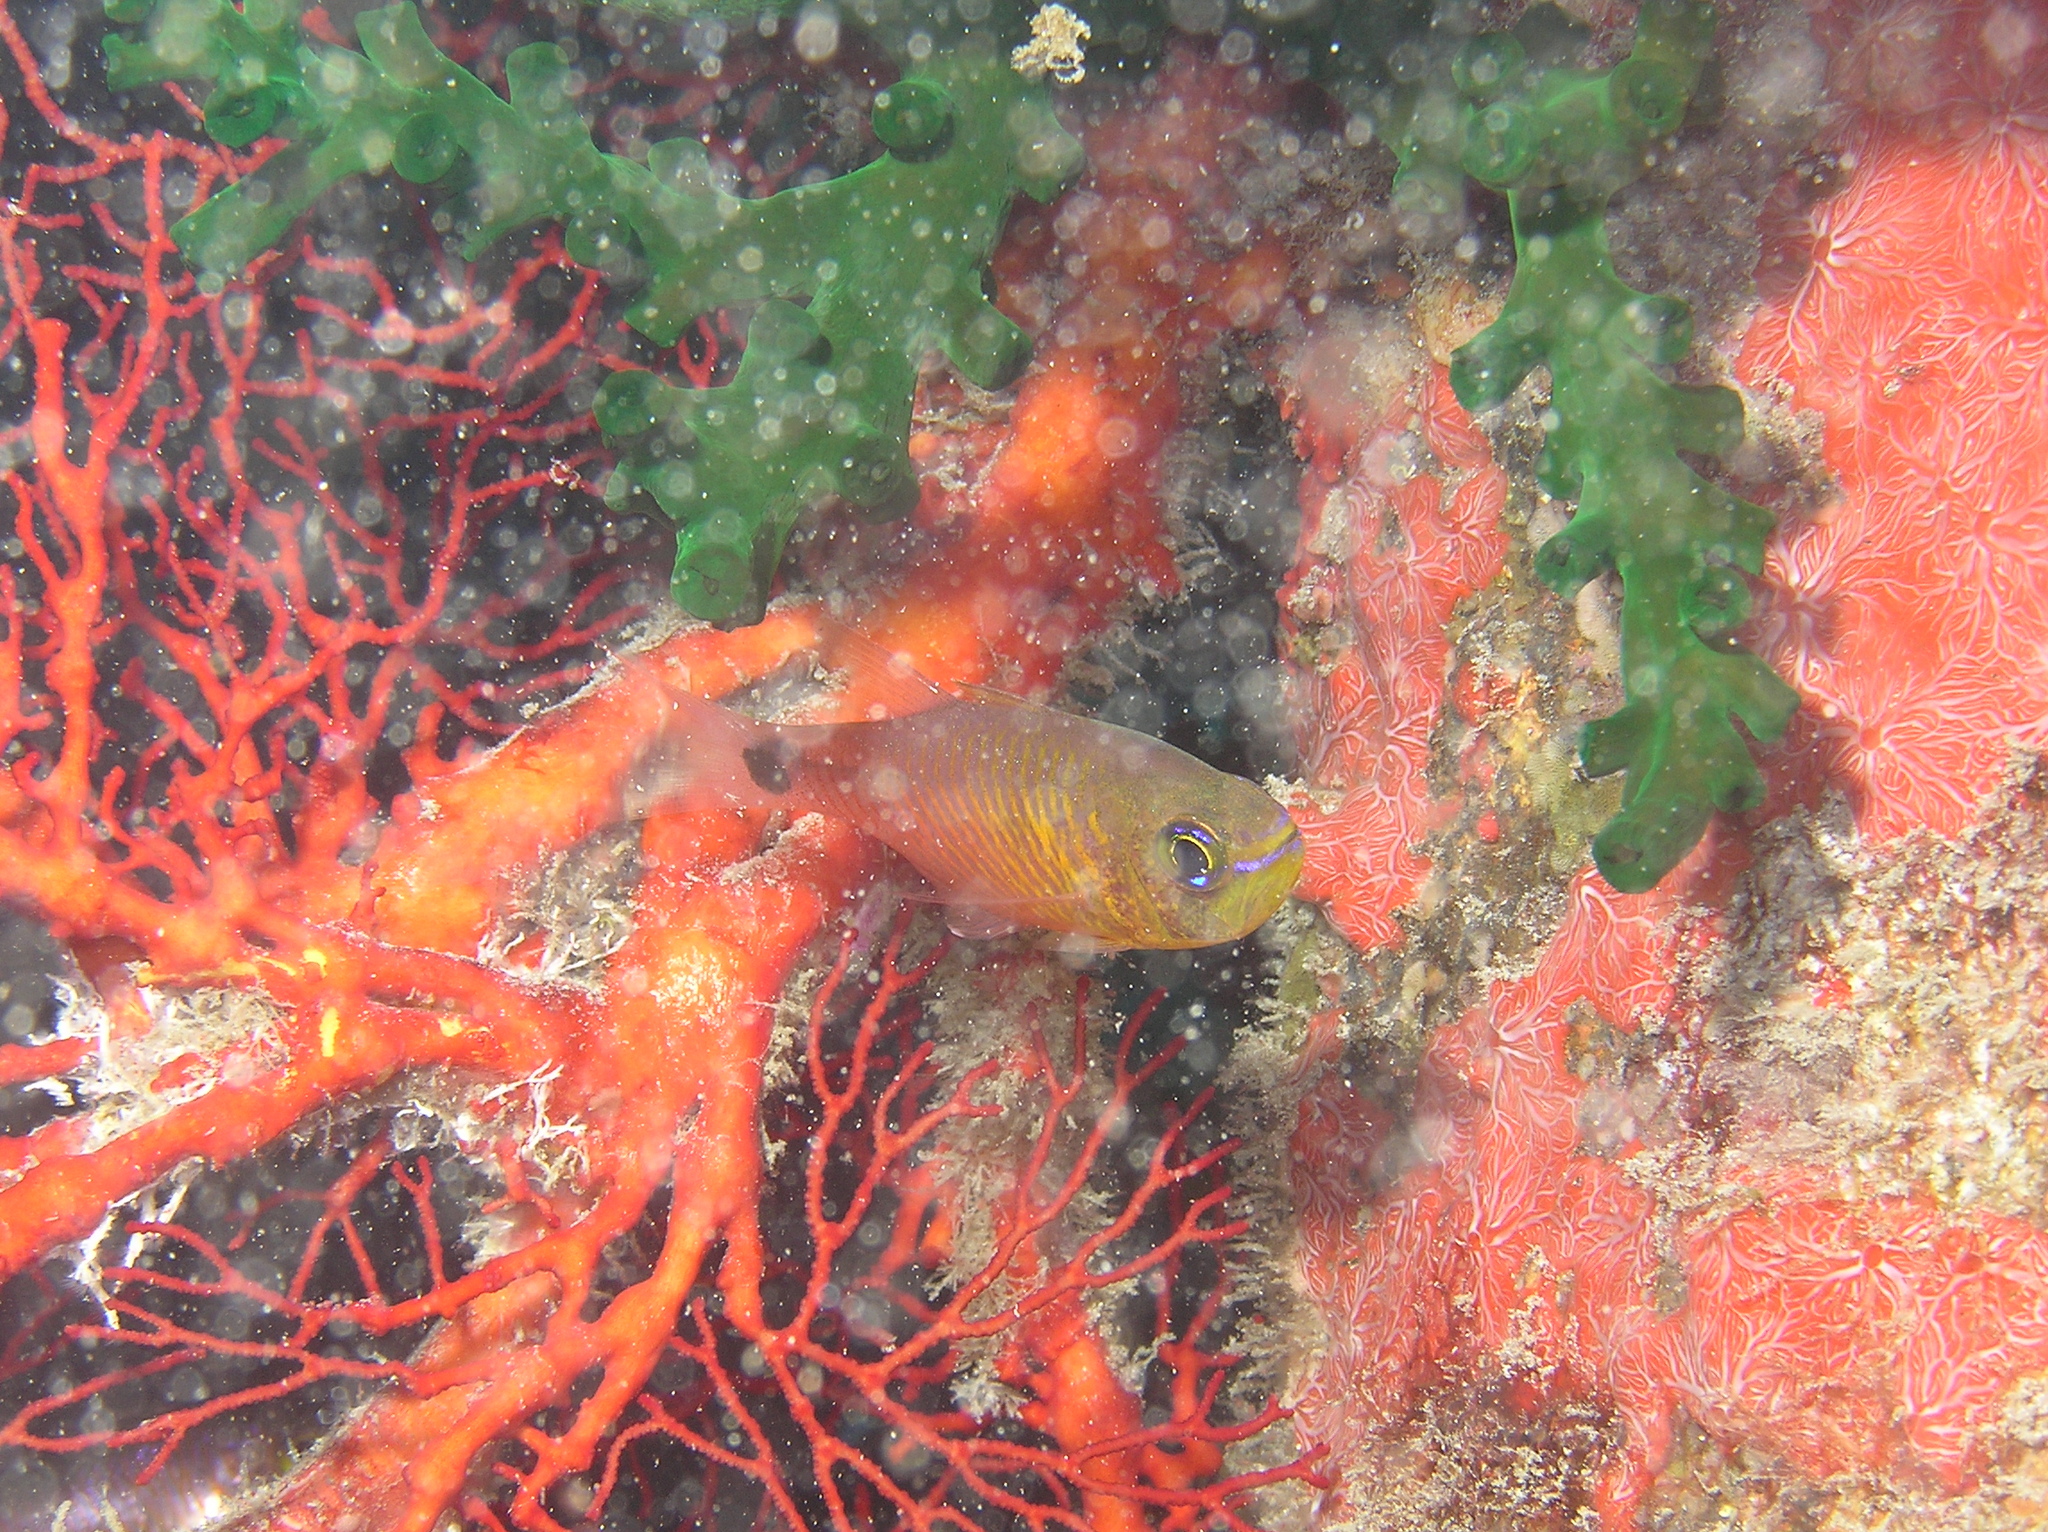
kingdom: Animalia
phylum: Chordata
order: Perciformes
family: Apogonidae
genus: Taeniamia
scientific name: Taeniamia fucata
